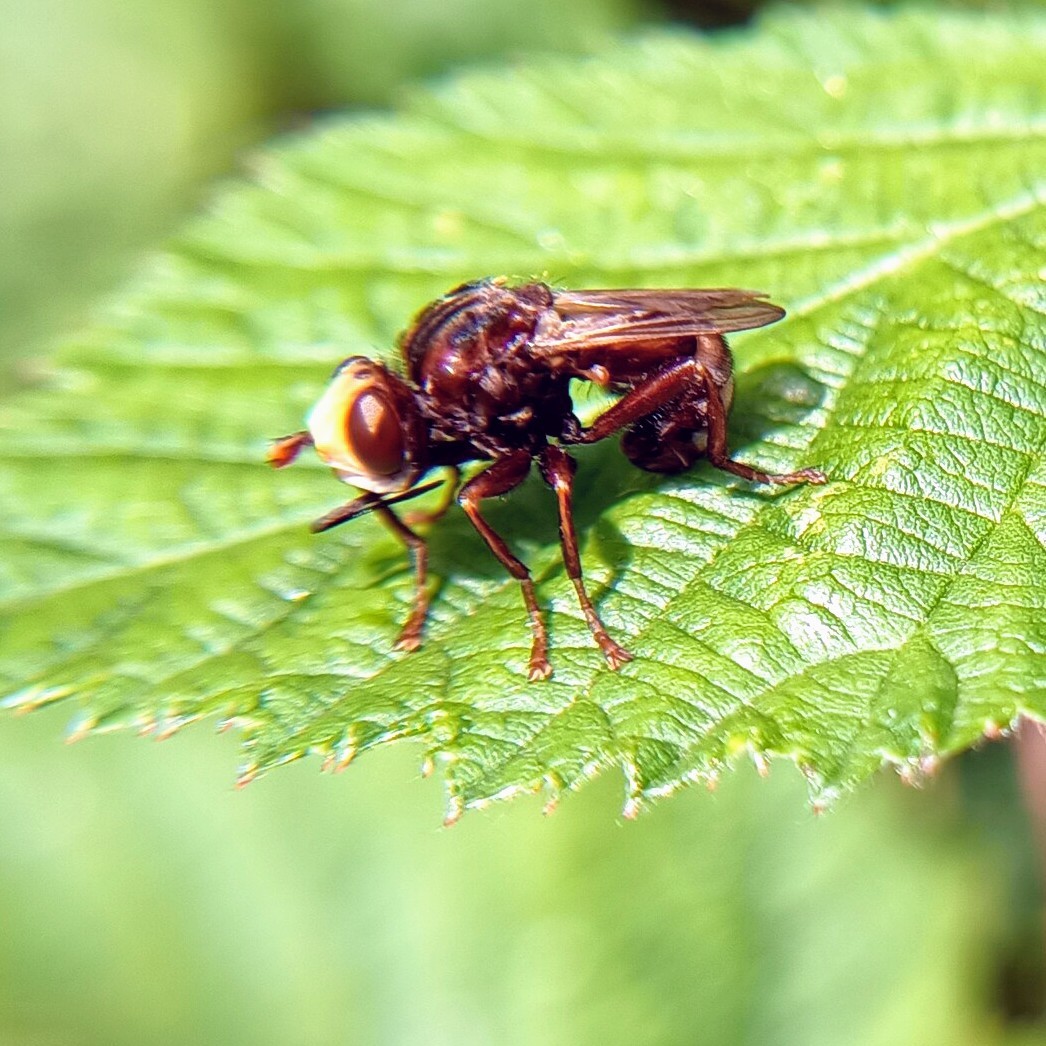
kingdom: Animalia
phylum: Arthropoda
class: Insecta
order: Diptera
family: Conopidae
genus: Sicus
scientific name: Sicus ferrugineus
